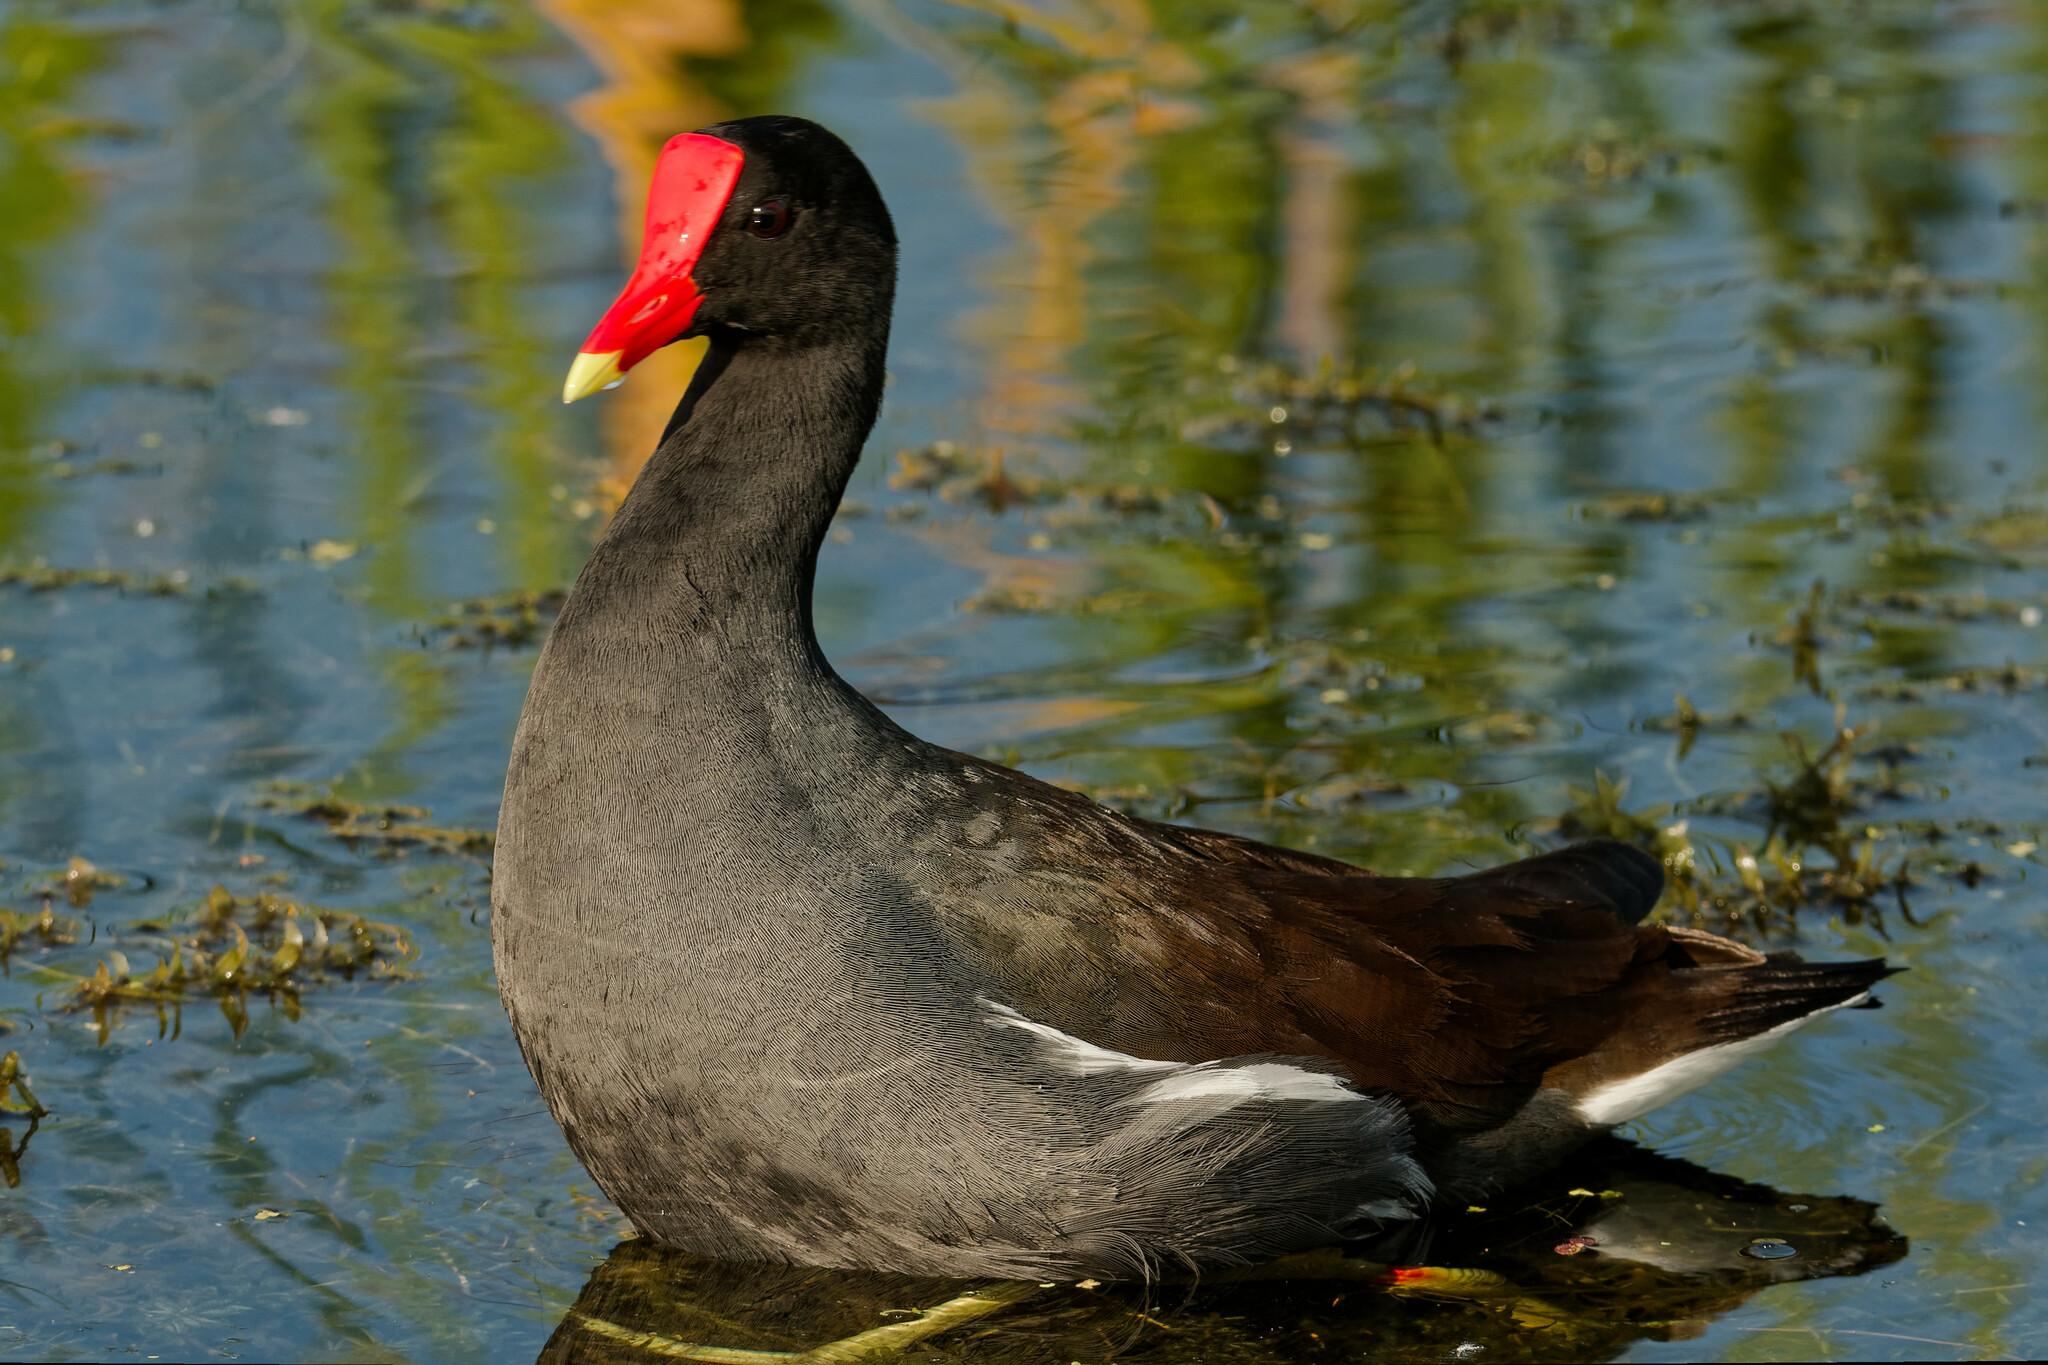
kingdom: Animalia
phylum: Chordata
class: Aves
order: Gruiformes
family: Rallidae
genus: Gallinula
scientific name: Gallinula chloropus
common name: Common moorhen
